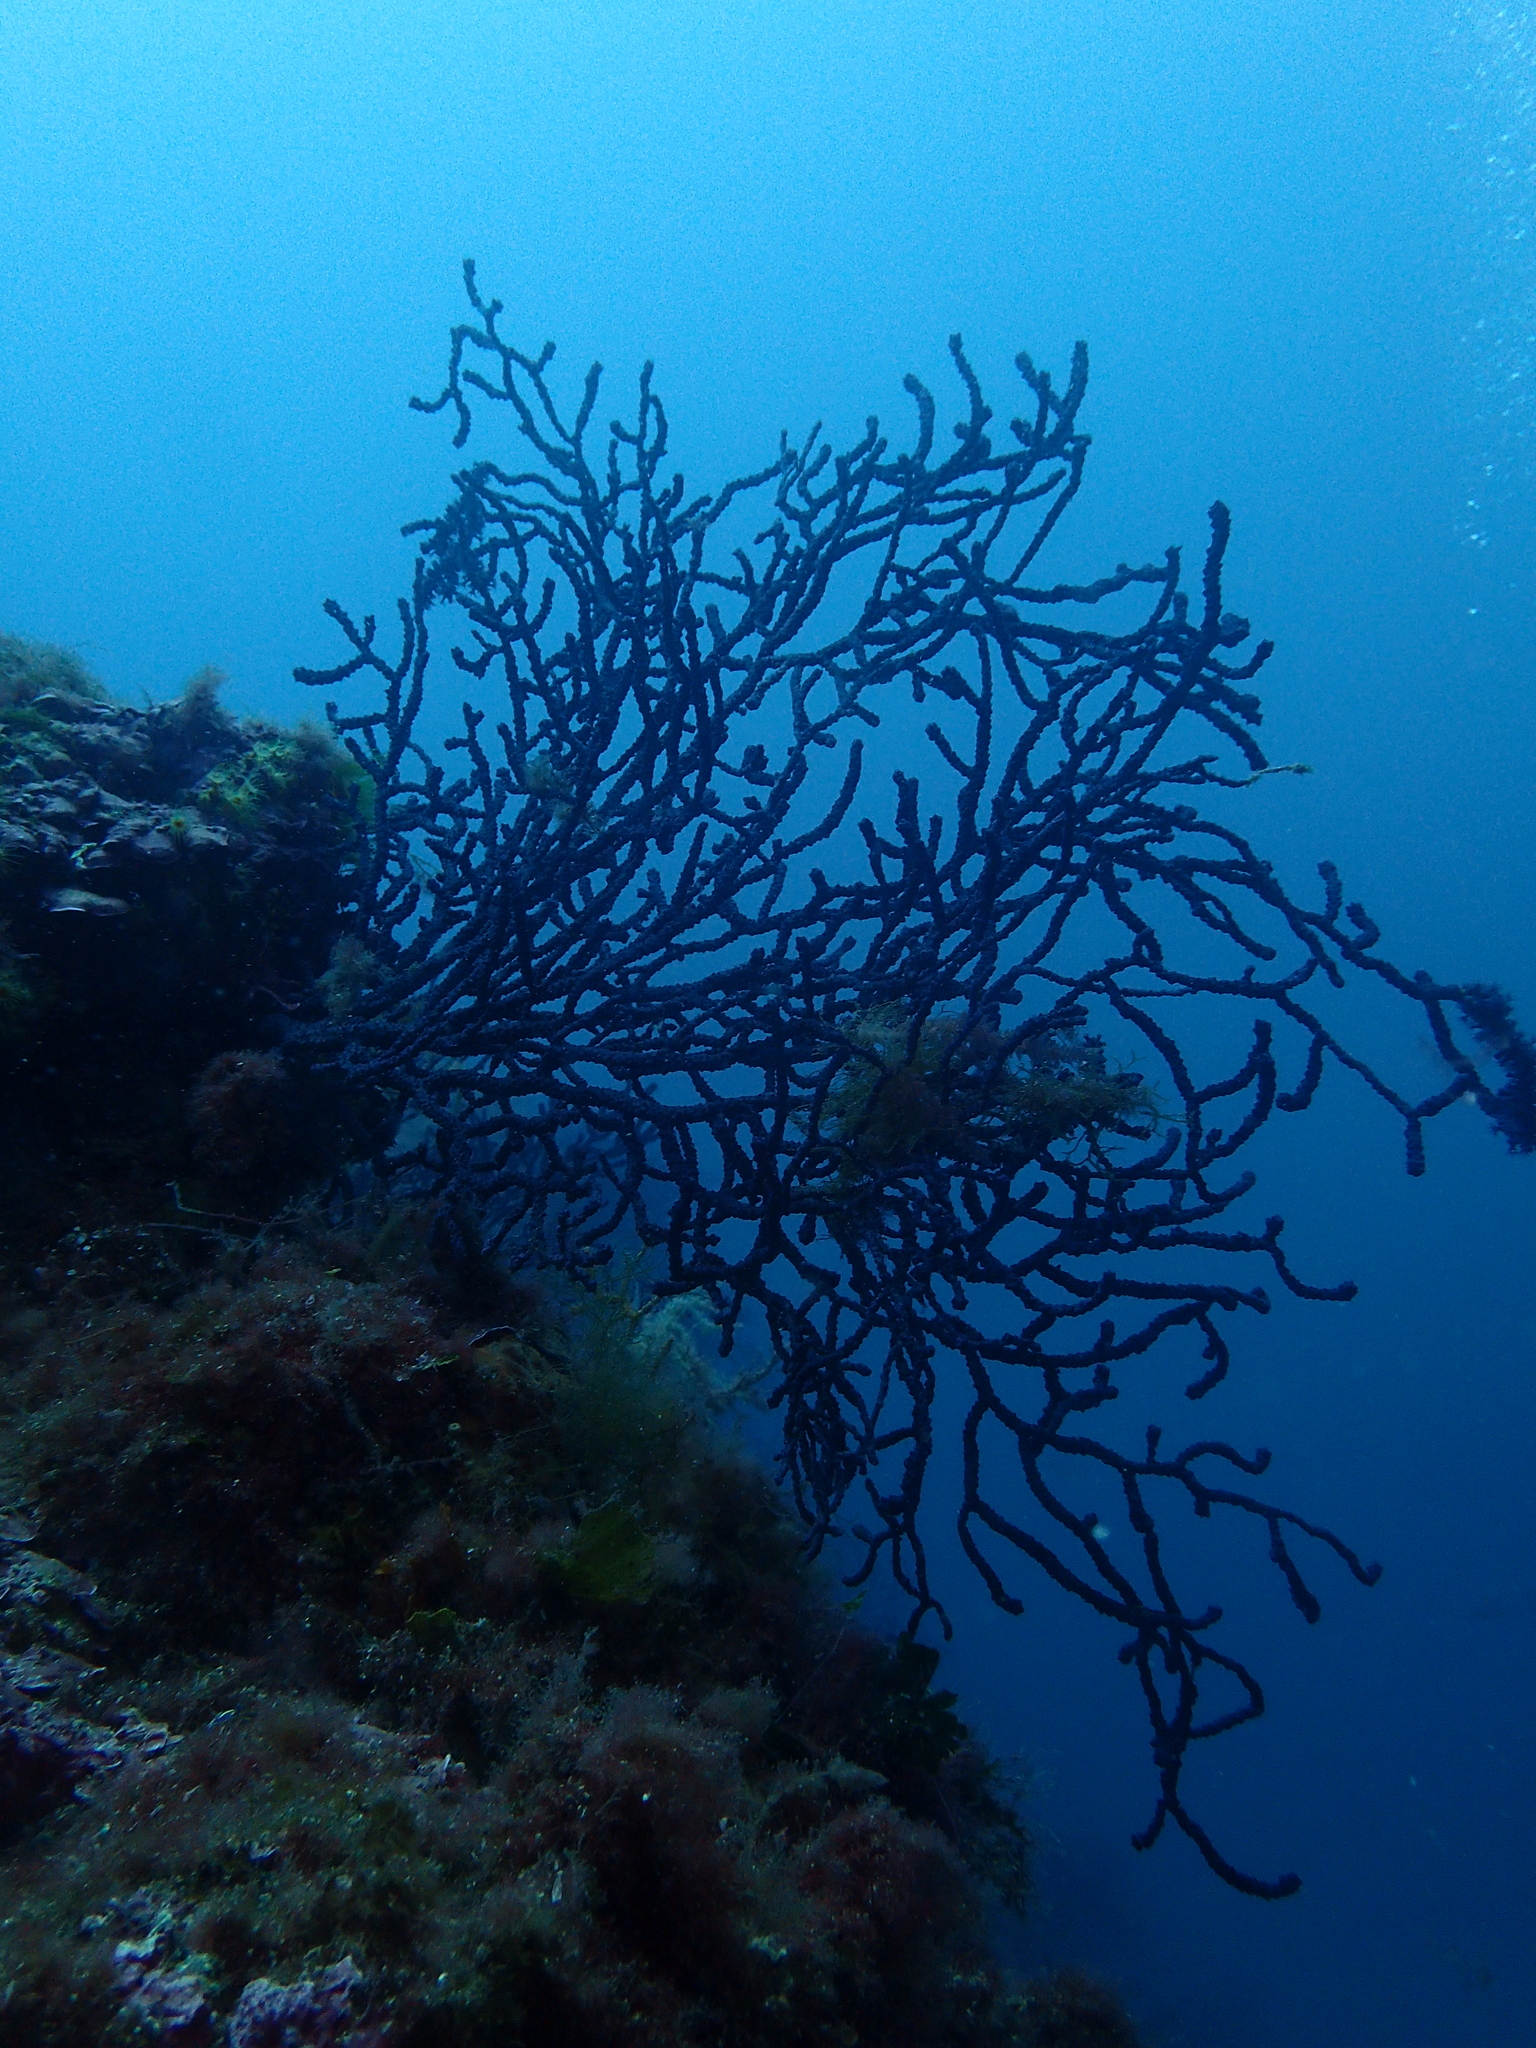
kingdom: Animalia
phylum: Cnidaria
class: Anthozoa
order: Malacalcyonacea
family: Paramuriceidae
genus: Paramuricea
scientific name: Paramuricea clavata
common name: Violescent sea-whip
